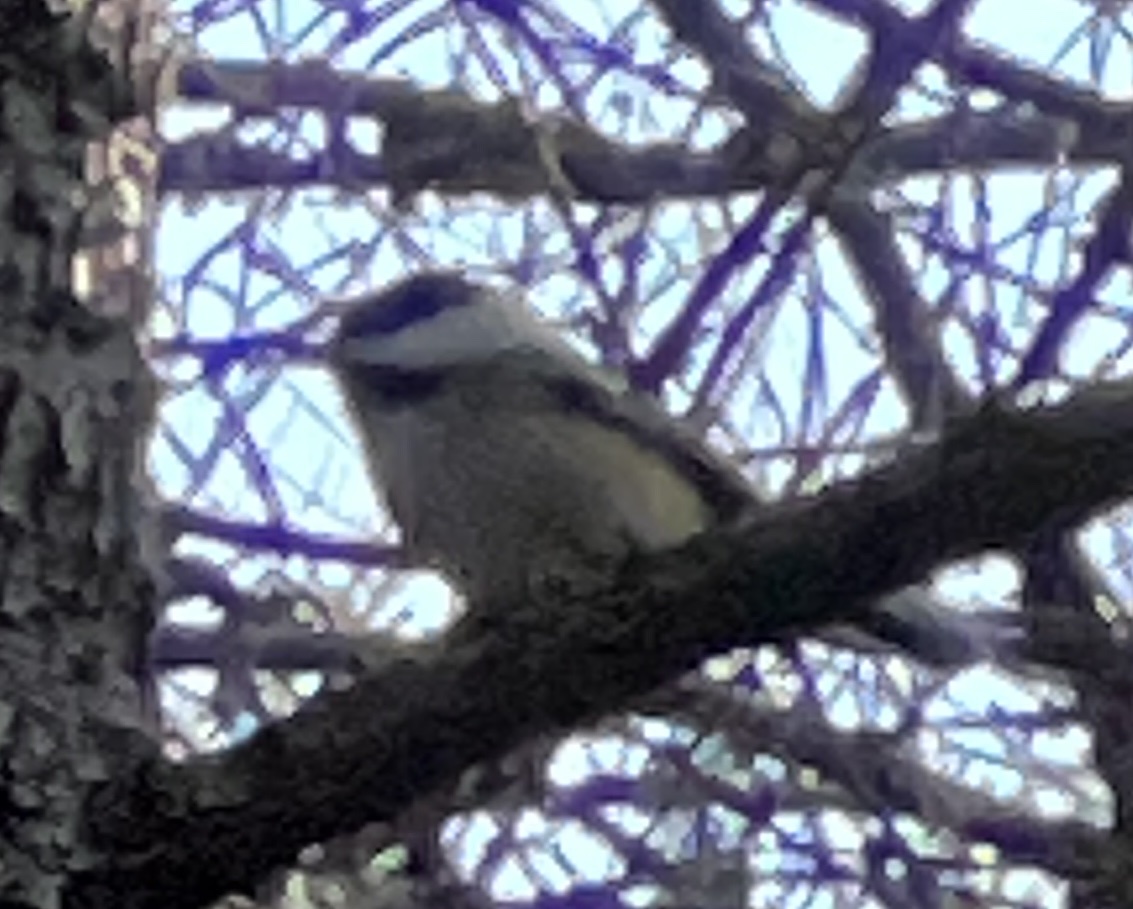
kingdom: Animalia
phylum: Chordata
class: Aves
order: Passeriformes
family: Paridae
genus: Poecile
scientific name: Poecile atricapillus
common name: Black-capped chickadee
